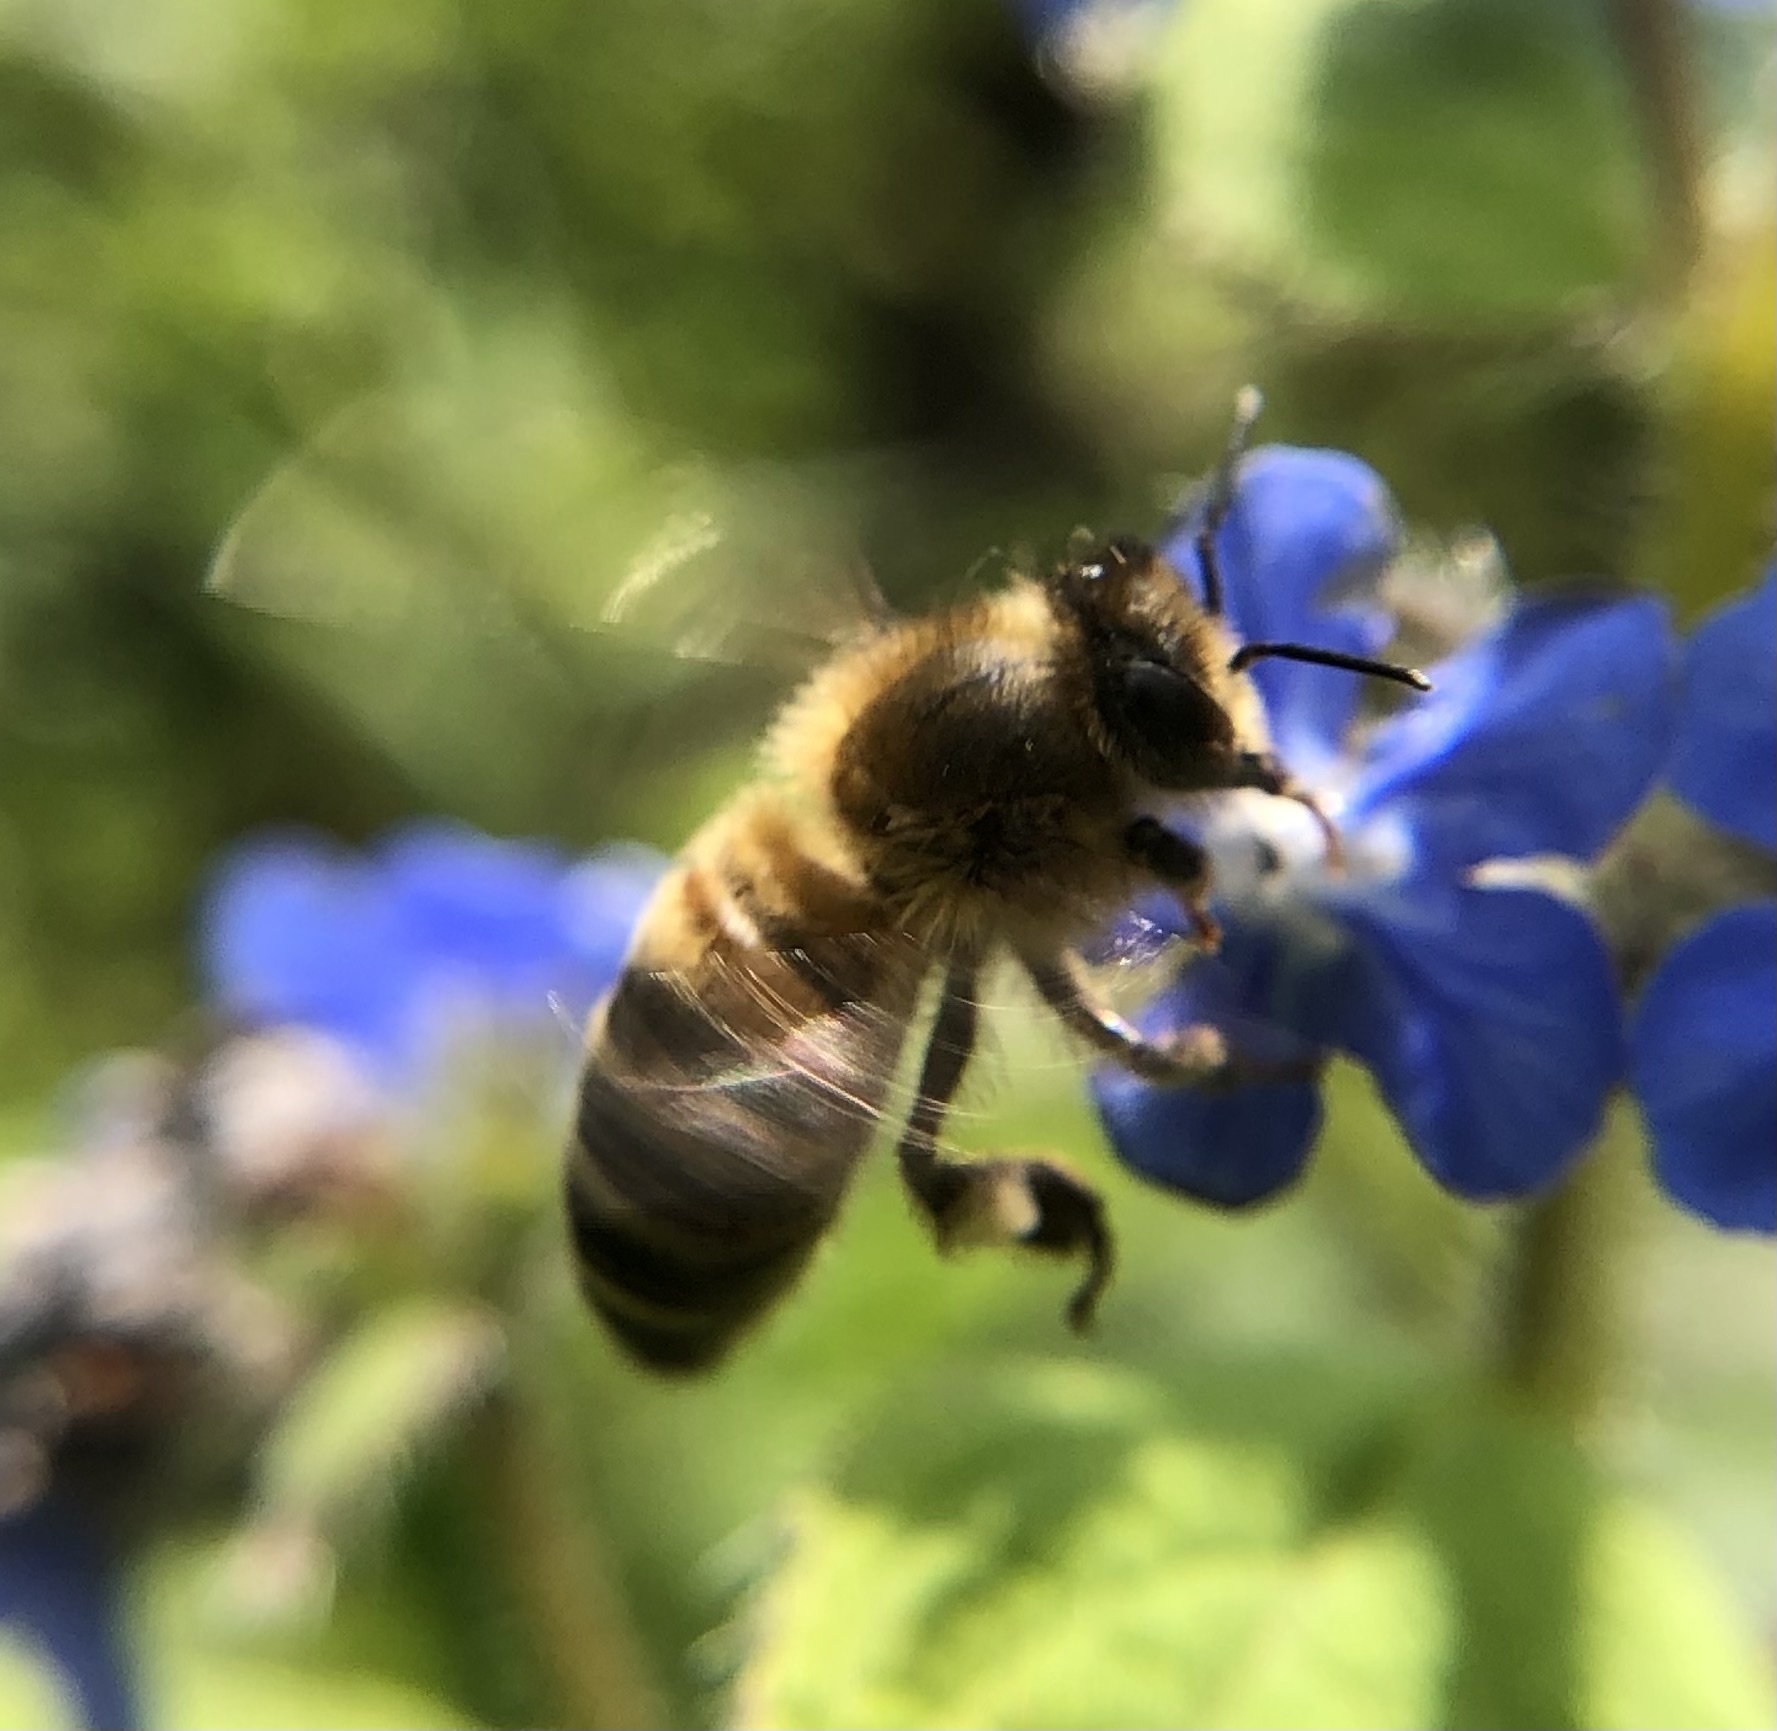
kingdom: Animalia
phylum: Arthropoda
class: Insecta
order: Hymenoptera
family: Apidae
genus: Apis
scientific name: Apis mellifera
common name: Honey bee
